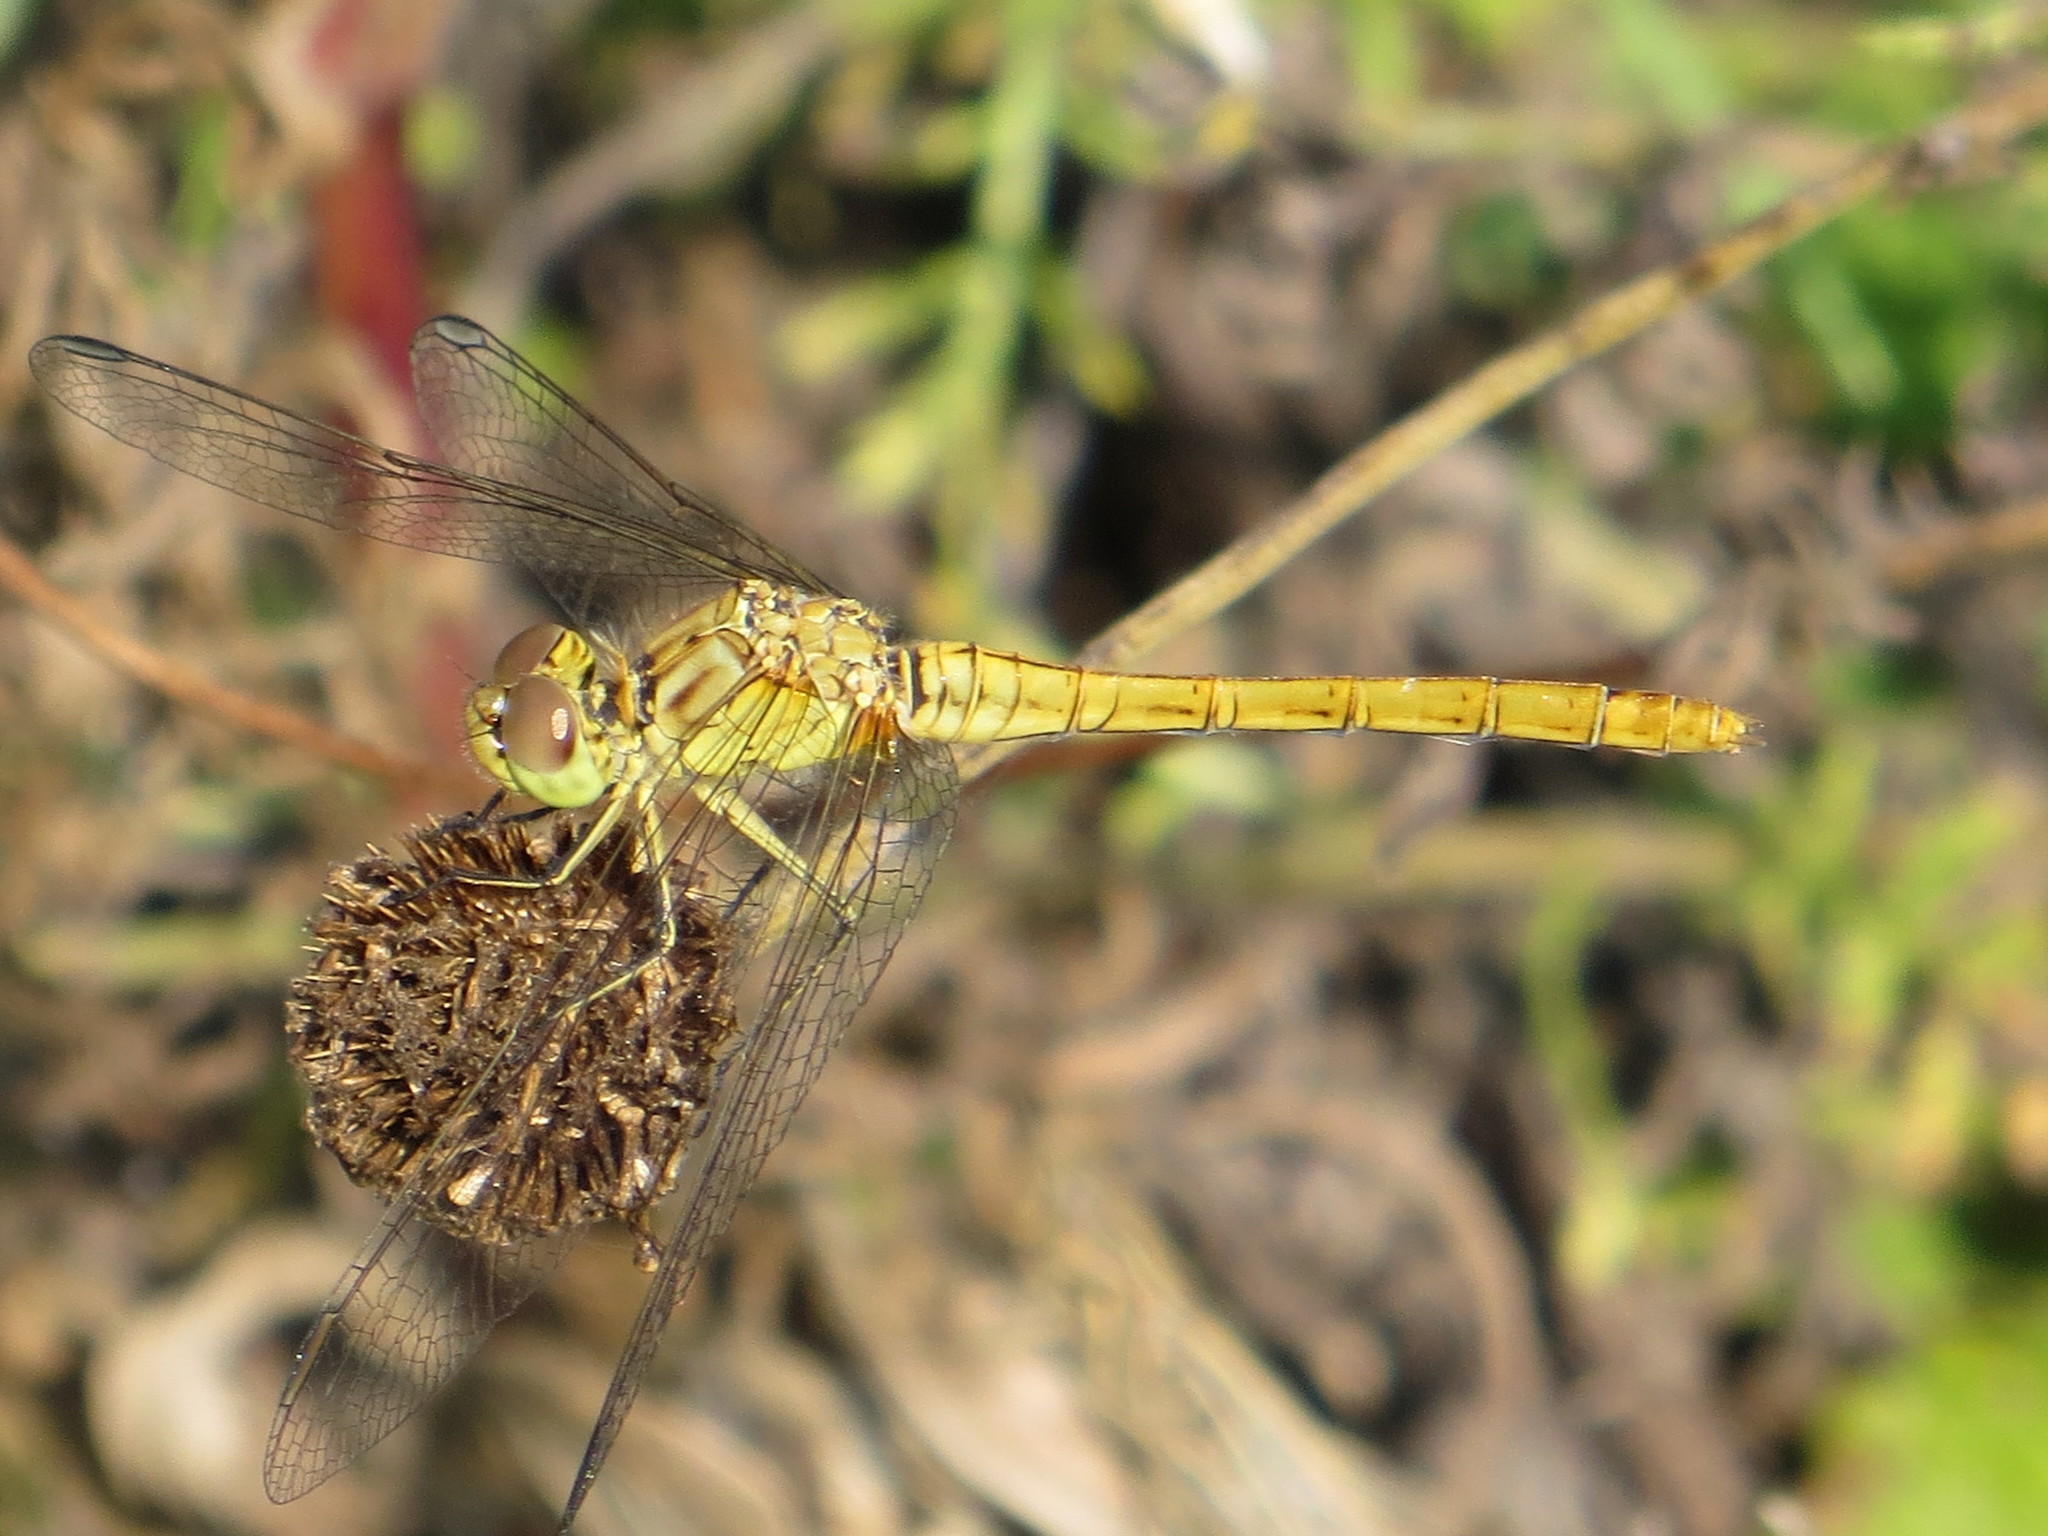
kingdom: Animalia
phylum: Arthropoda
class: Insecta
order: Odonata
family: Libellulidae
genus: Sympetrum
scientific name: Sympetrum meridionale
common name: Southern darter
